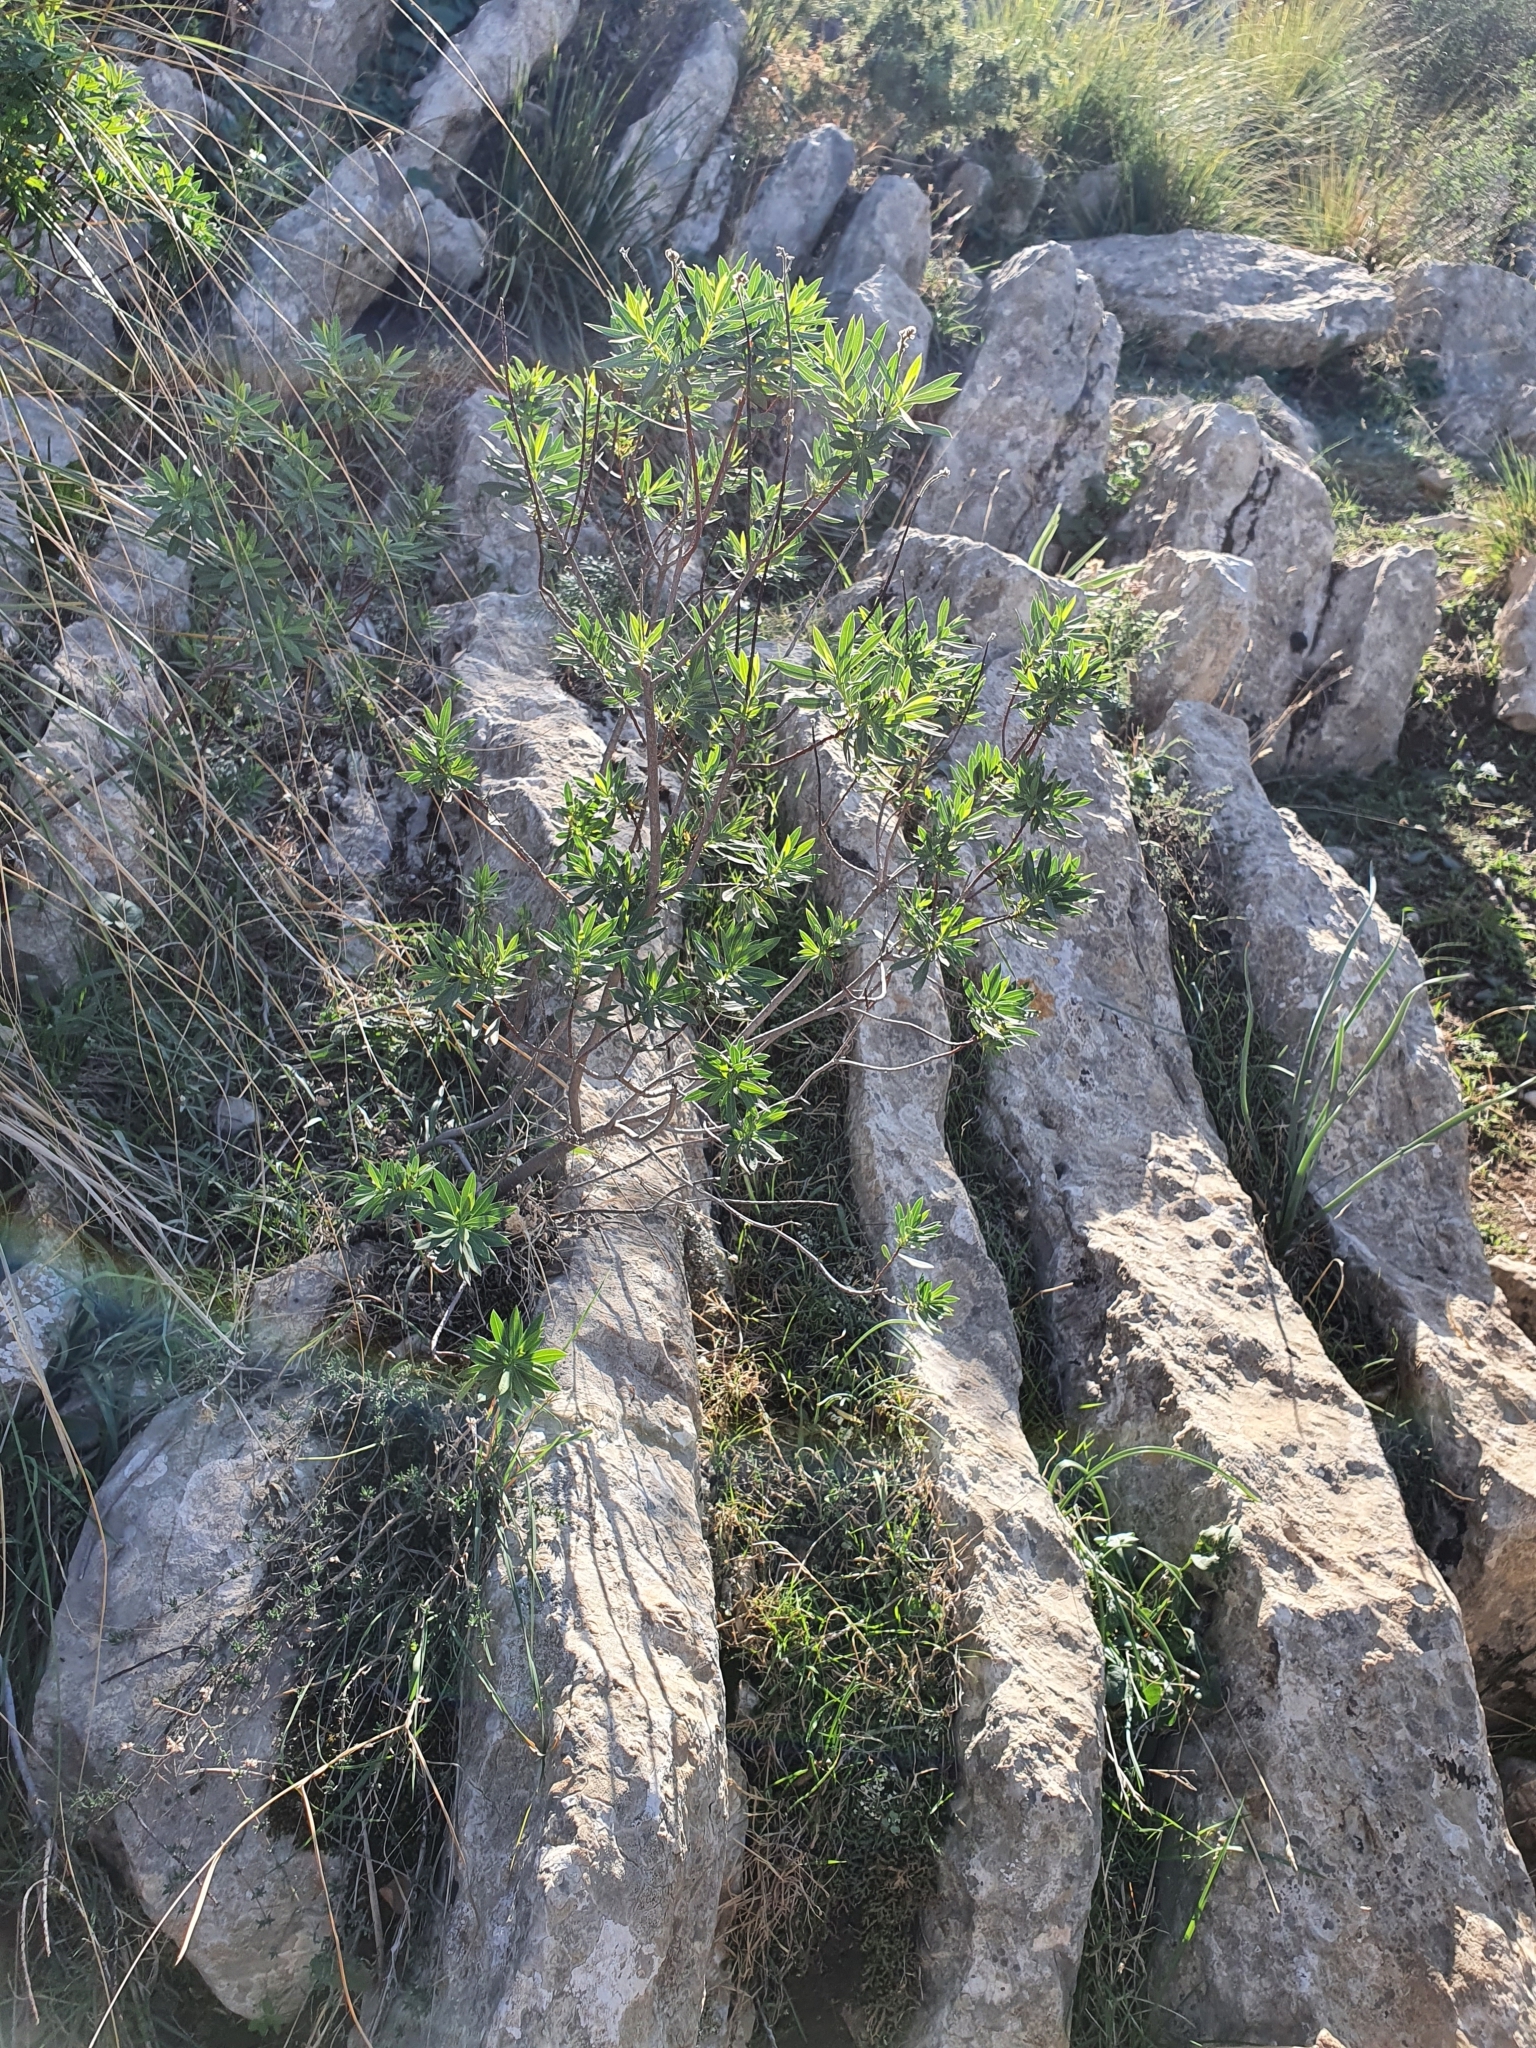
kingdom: Plantae
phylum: Tracheophyta
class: Magnoliopsida
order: Malvales
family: Thymelaeaceae
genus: Daphne
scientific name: Daphne gnidium
